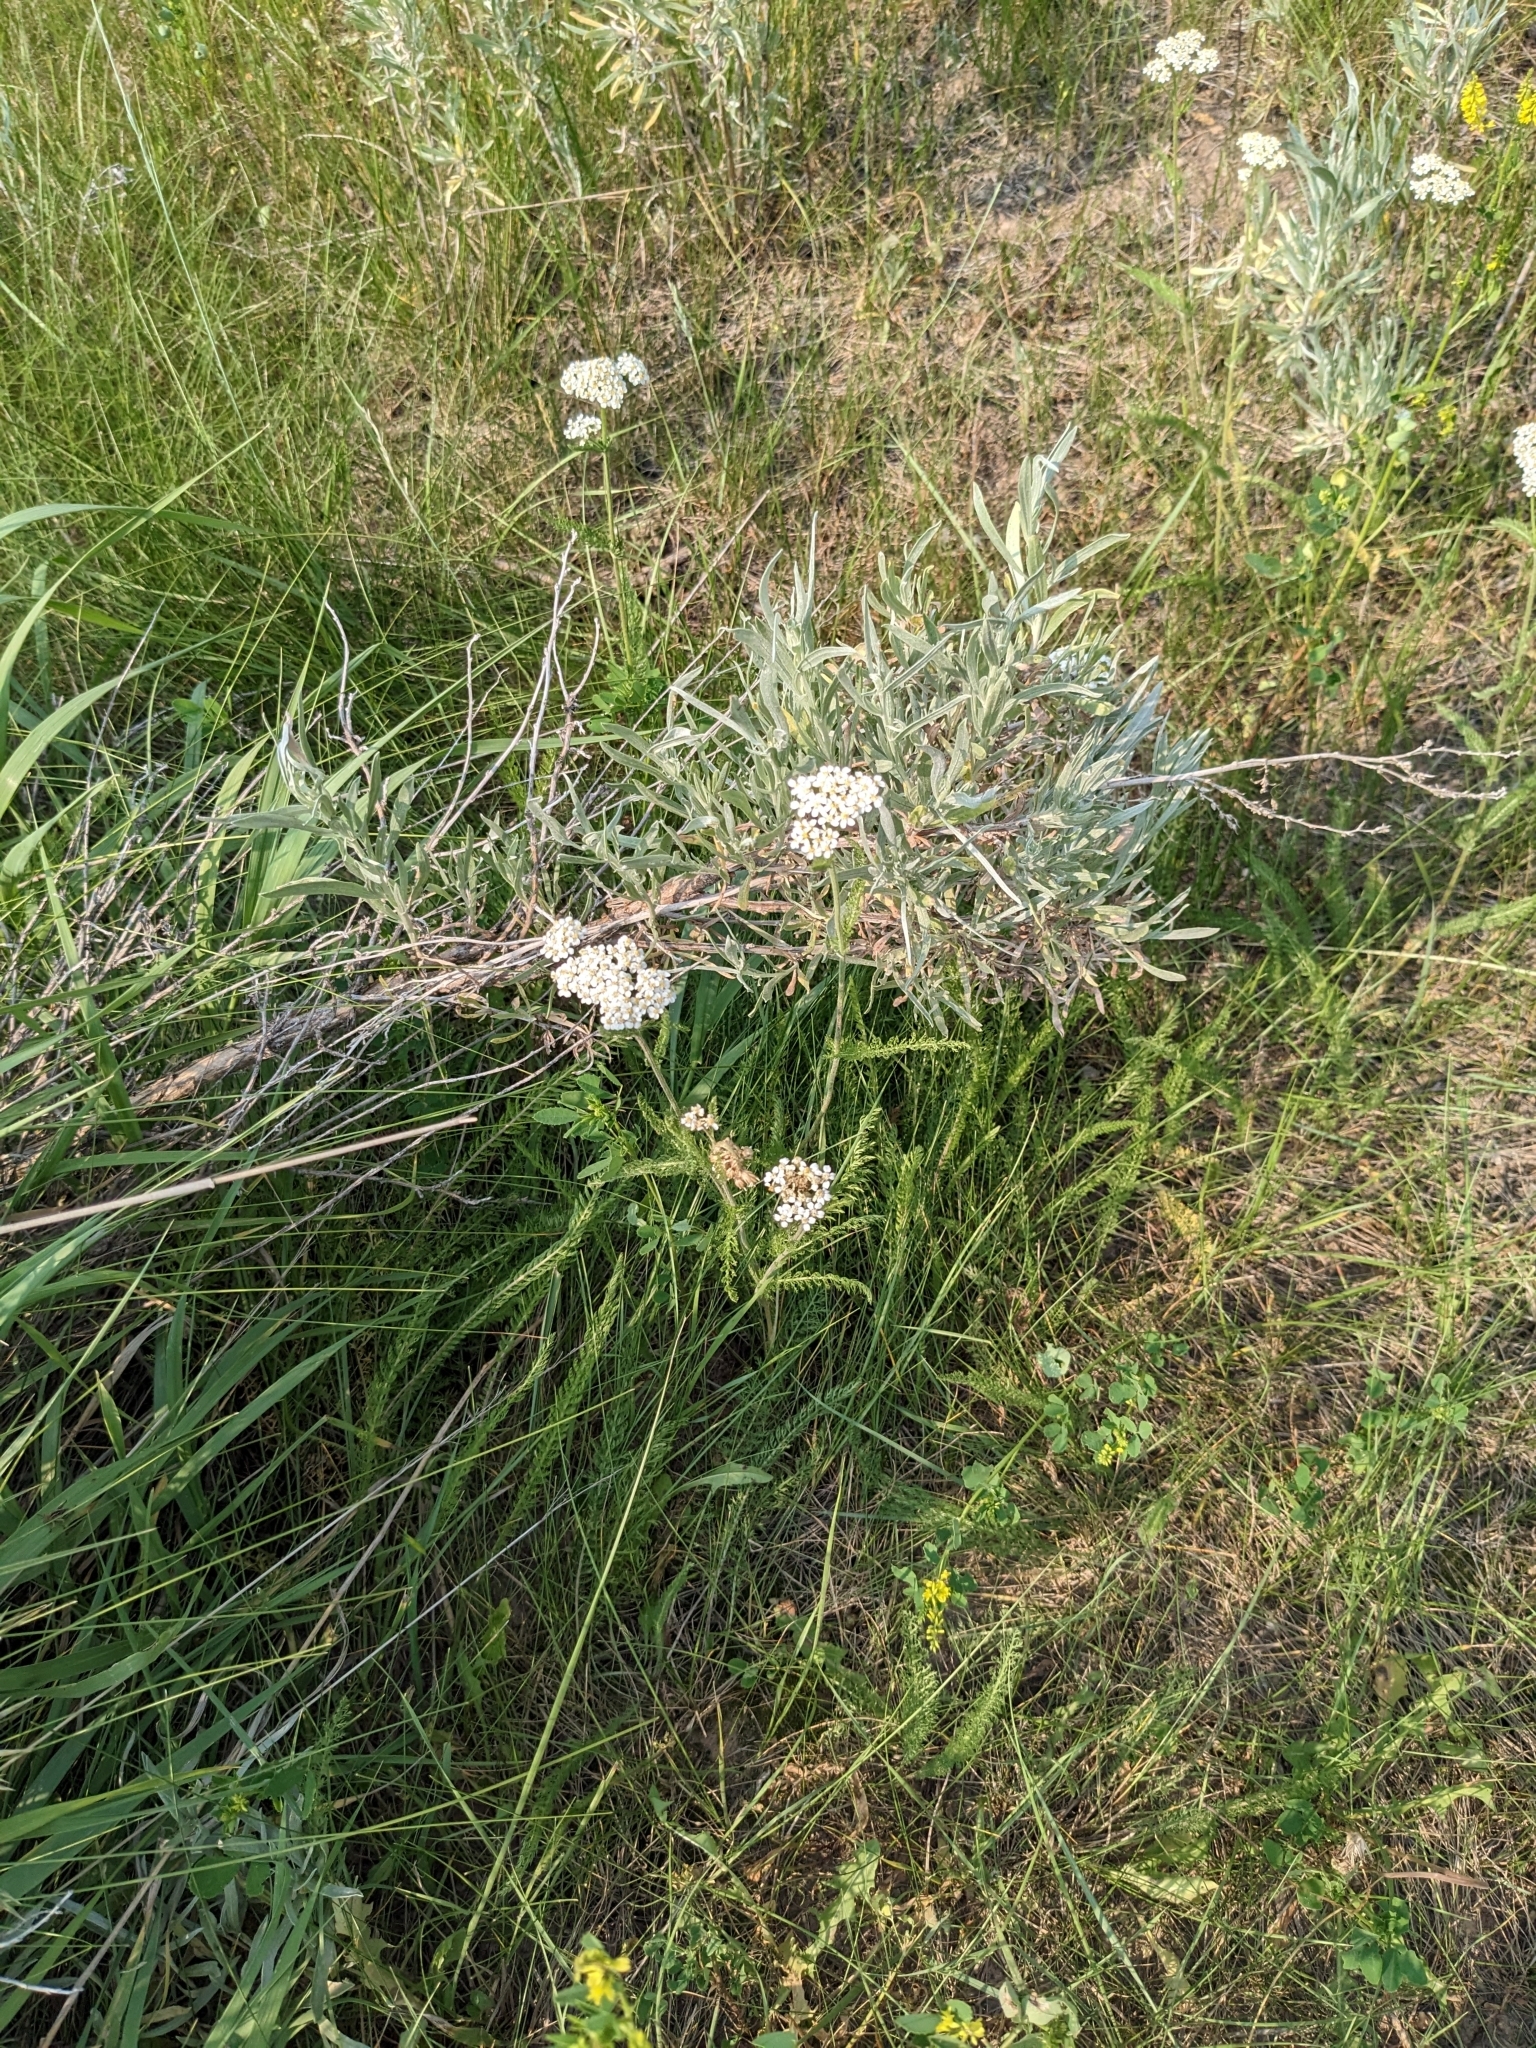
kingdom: Plantae
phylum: Tracheophyta
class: Magnoliopsida
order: Asterales
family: Asteraceae
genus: Achillea
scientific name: Achillea millefolium
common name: Yarrow
